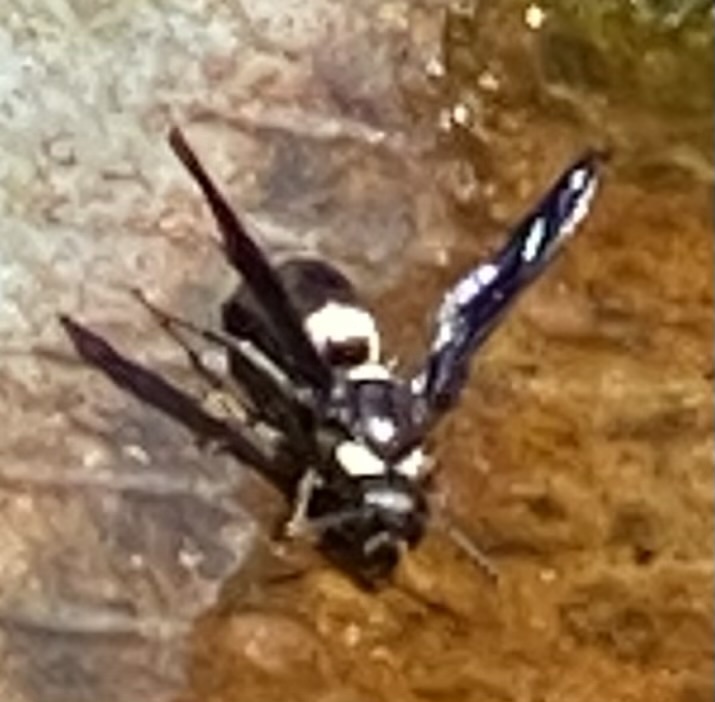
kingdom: Animalia
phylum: Arthropoda
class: Insecta
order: Hymenoptera
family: Eumenidae
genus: Monobia
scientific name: Monobia quadridens
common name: Four-toothed mason wasp
